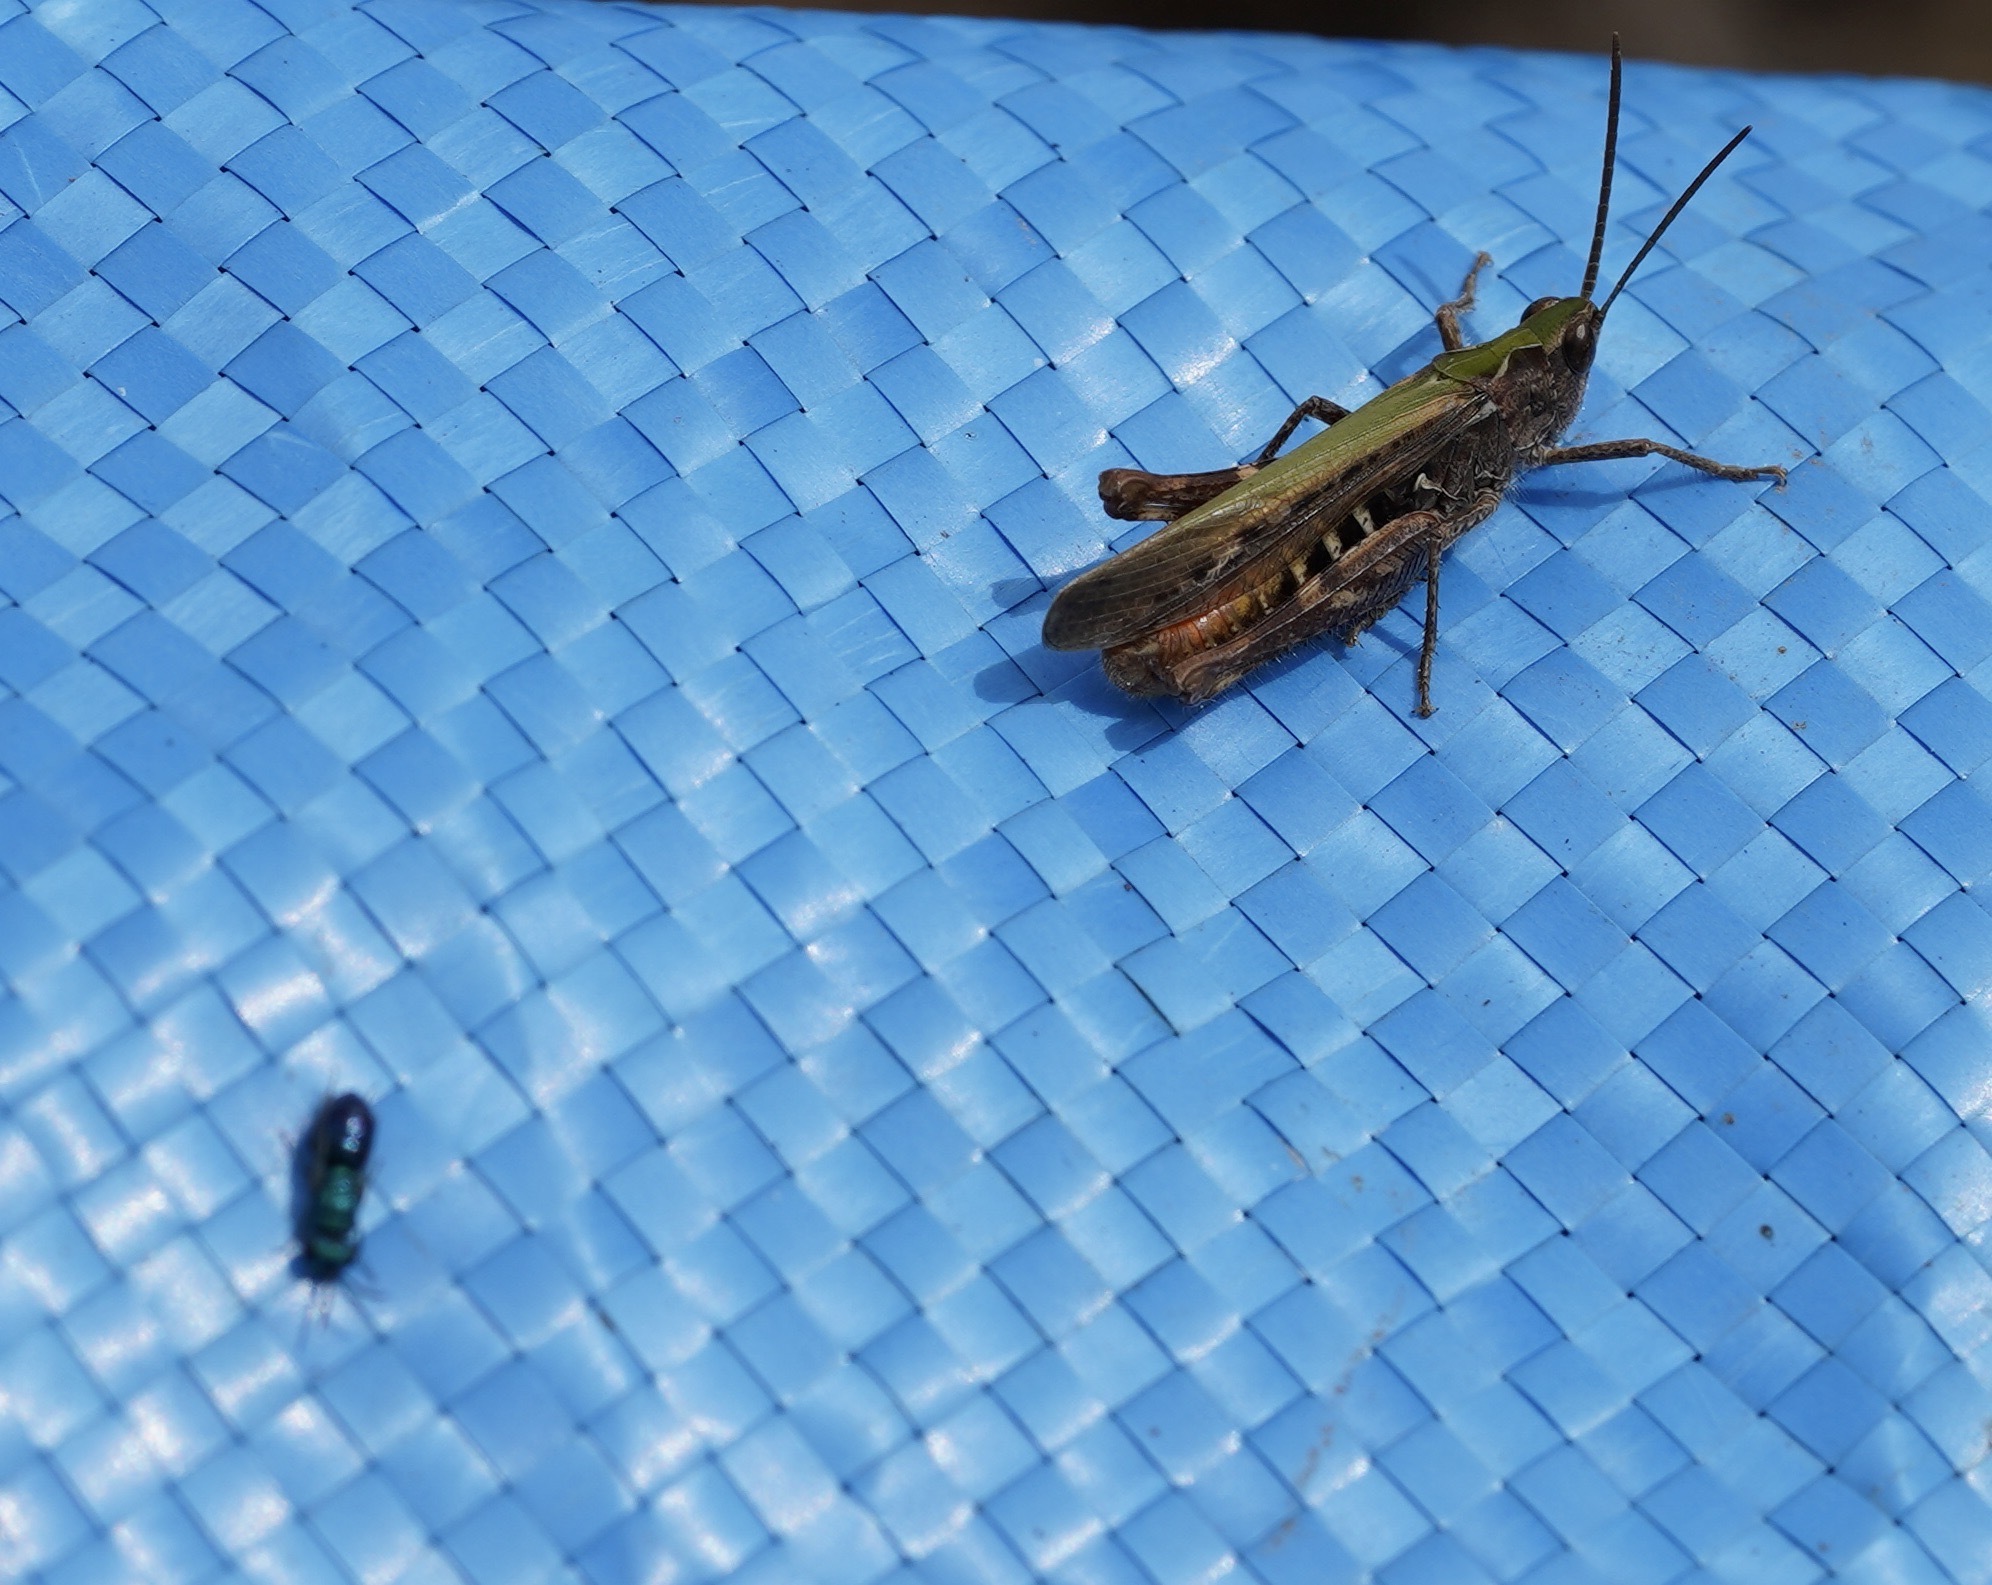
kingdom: Animalia
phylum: Arthropoda
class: Insecta
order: Orthoptera
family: Acrididae
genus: Chorthippus
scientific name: Chorthippus brunneus
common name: Field grasshopper
